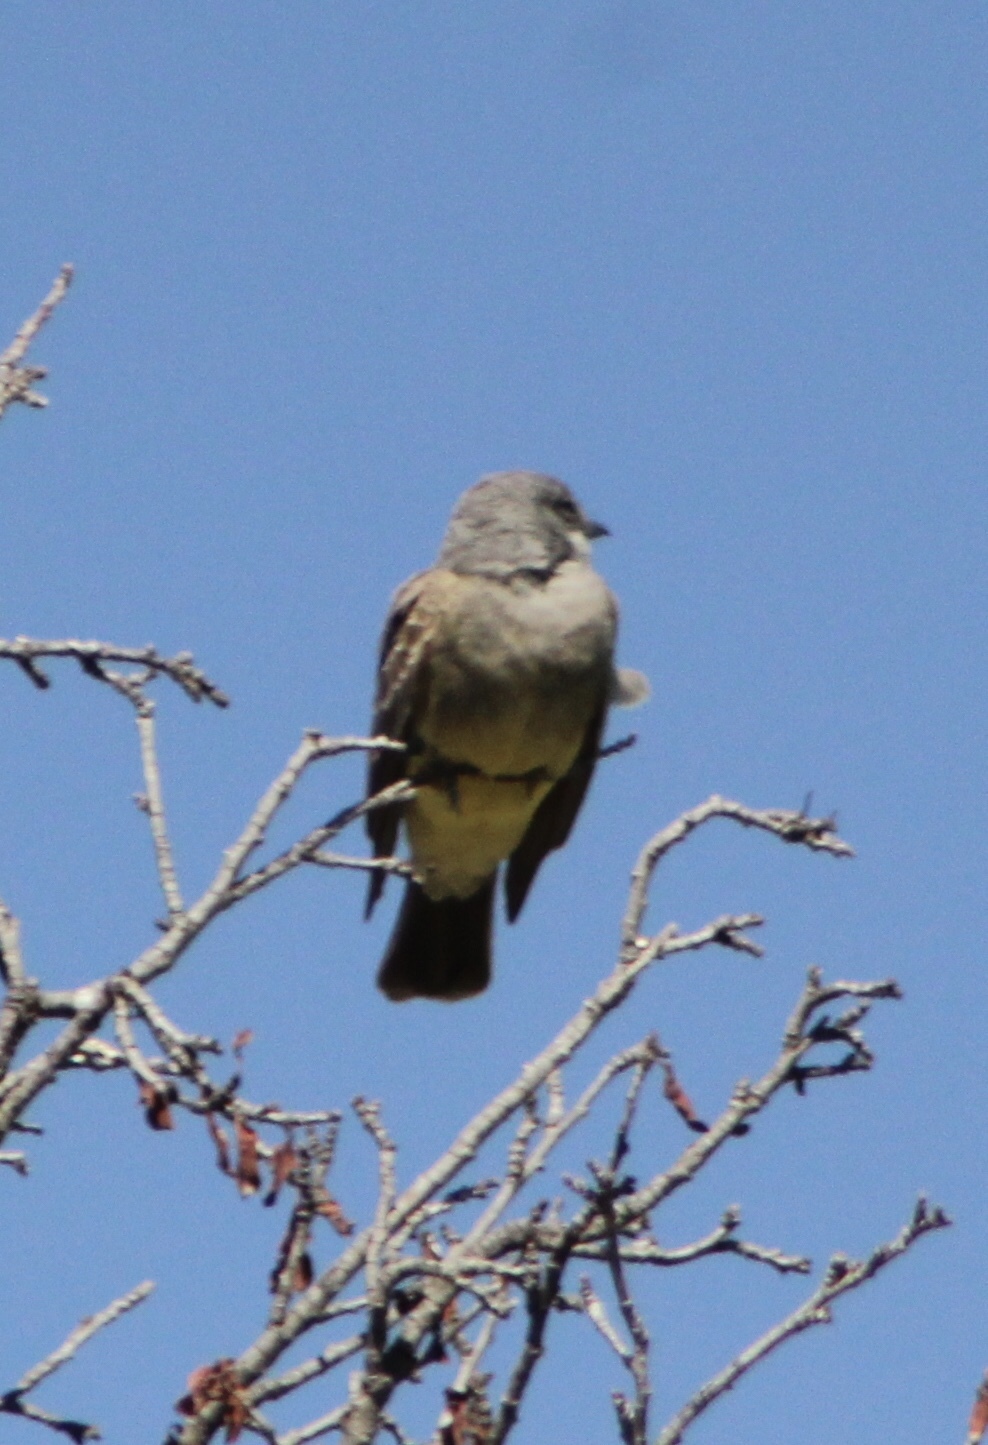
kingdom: Animalia
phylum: Chordata
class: Aves
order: Passeriformes
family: Tyrannidae
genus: Tyrannus
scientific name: Tyrannus vociferans
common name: Cassin's kingbird
